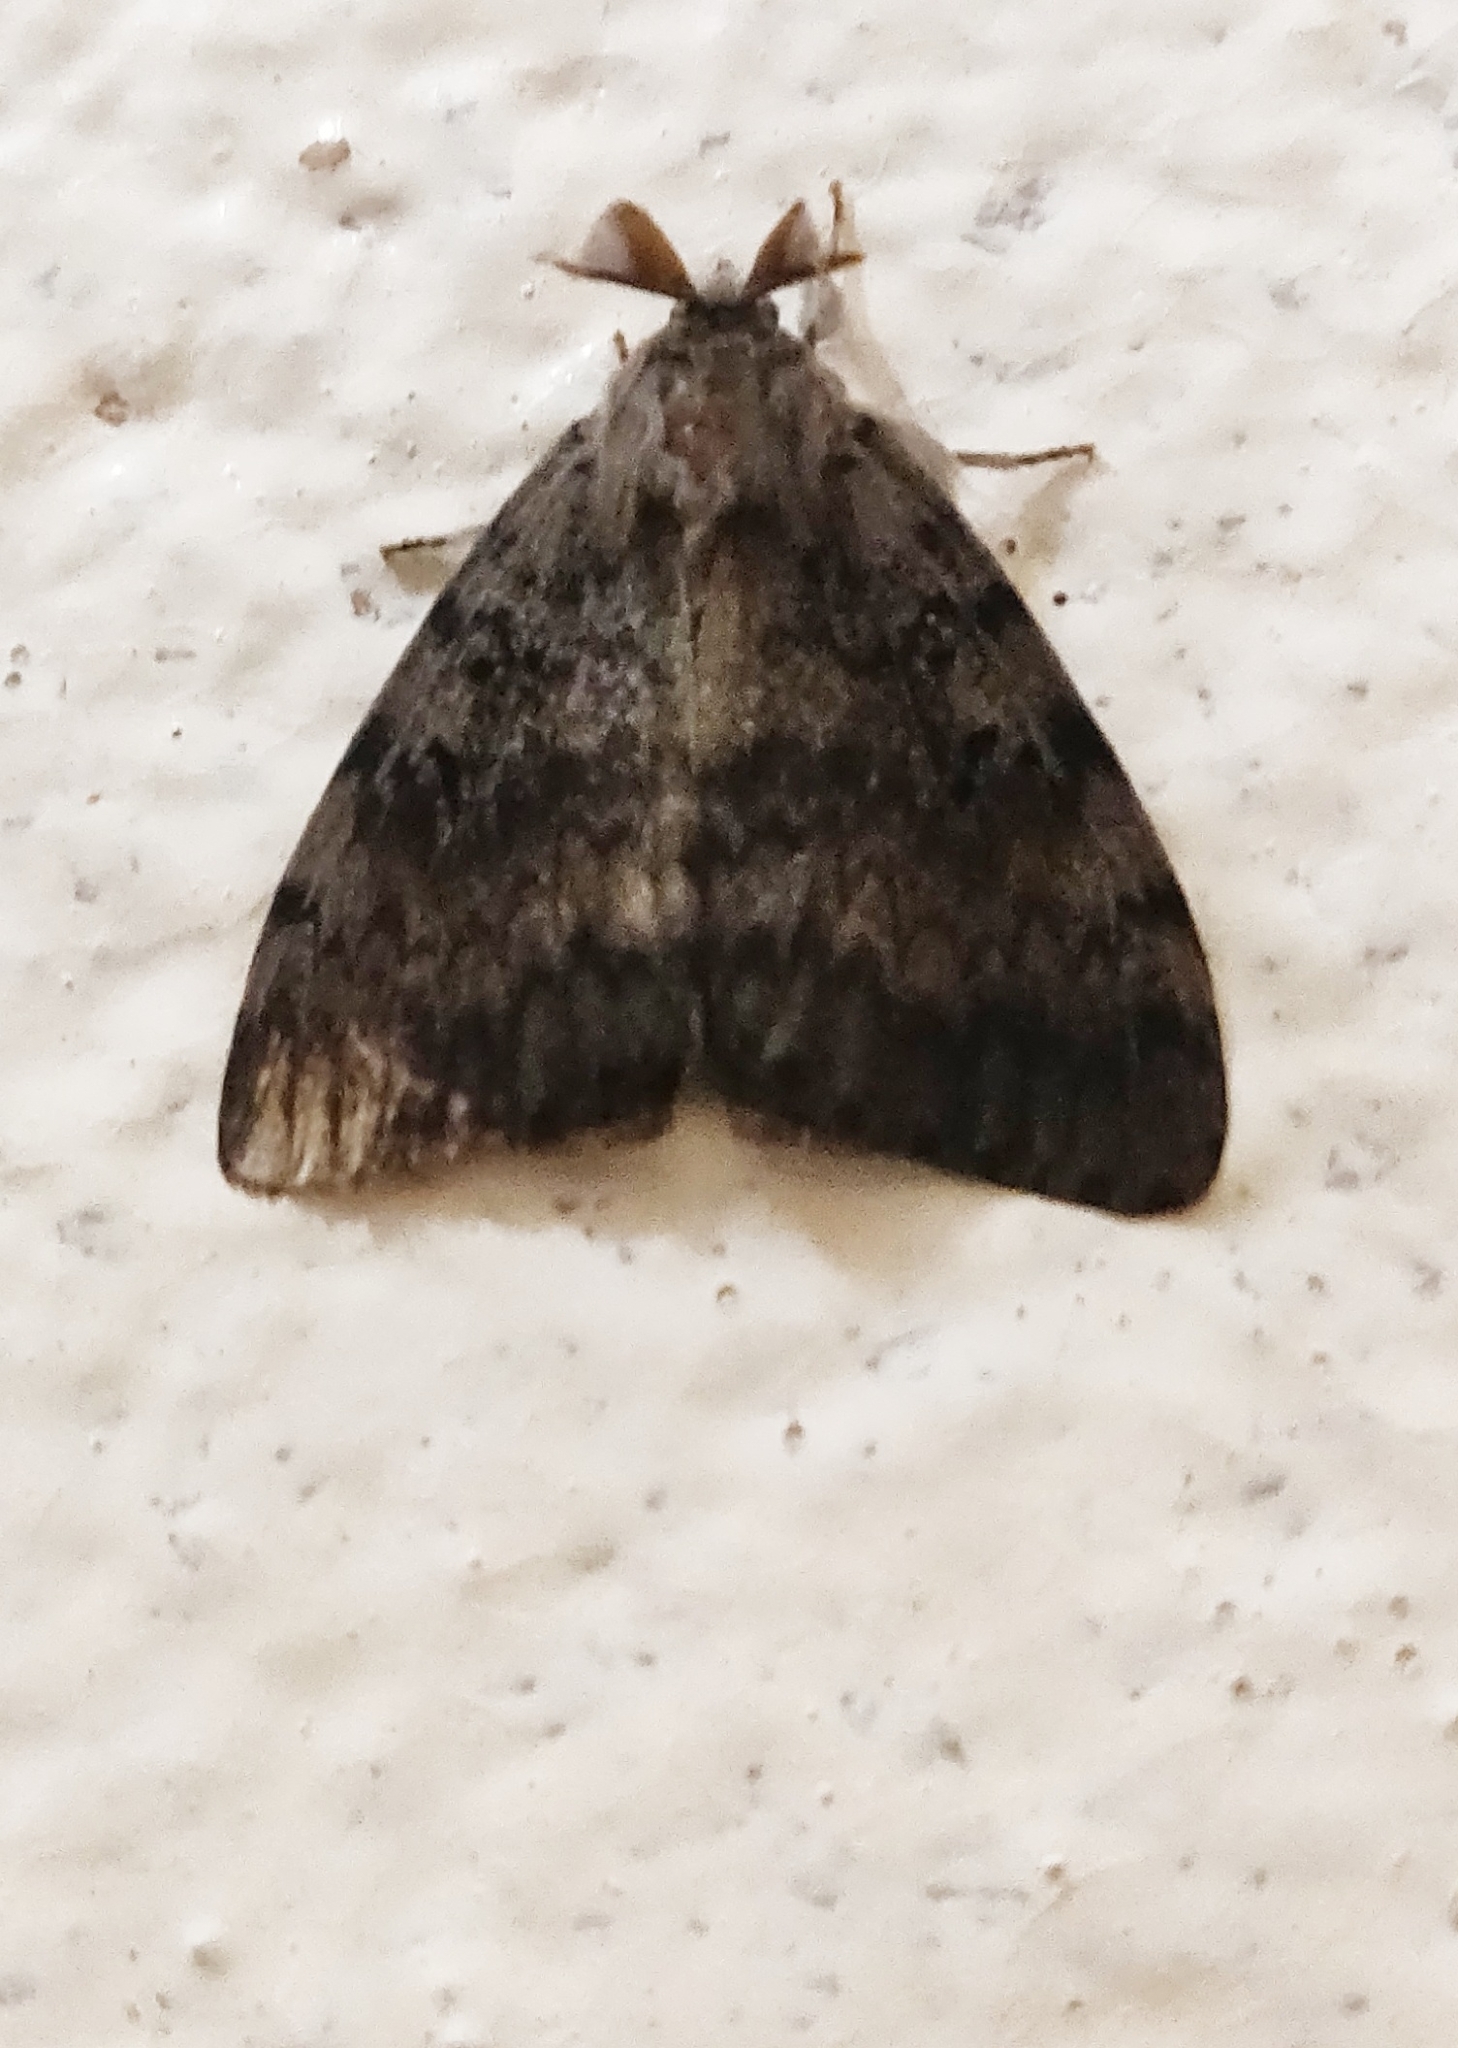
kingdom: Animalia
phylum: Arthropoda
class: Insecta
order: Lepidoptera
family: Erebidae
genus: Lymantria
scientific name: Lymantria dispar
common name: Gypsy moth
